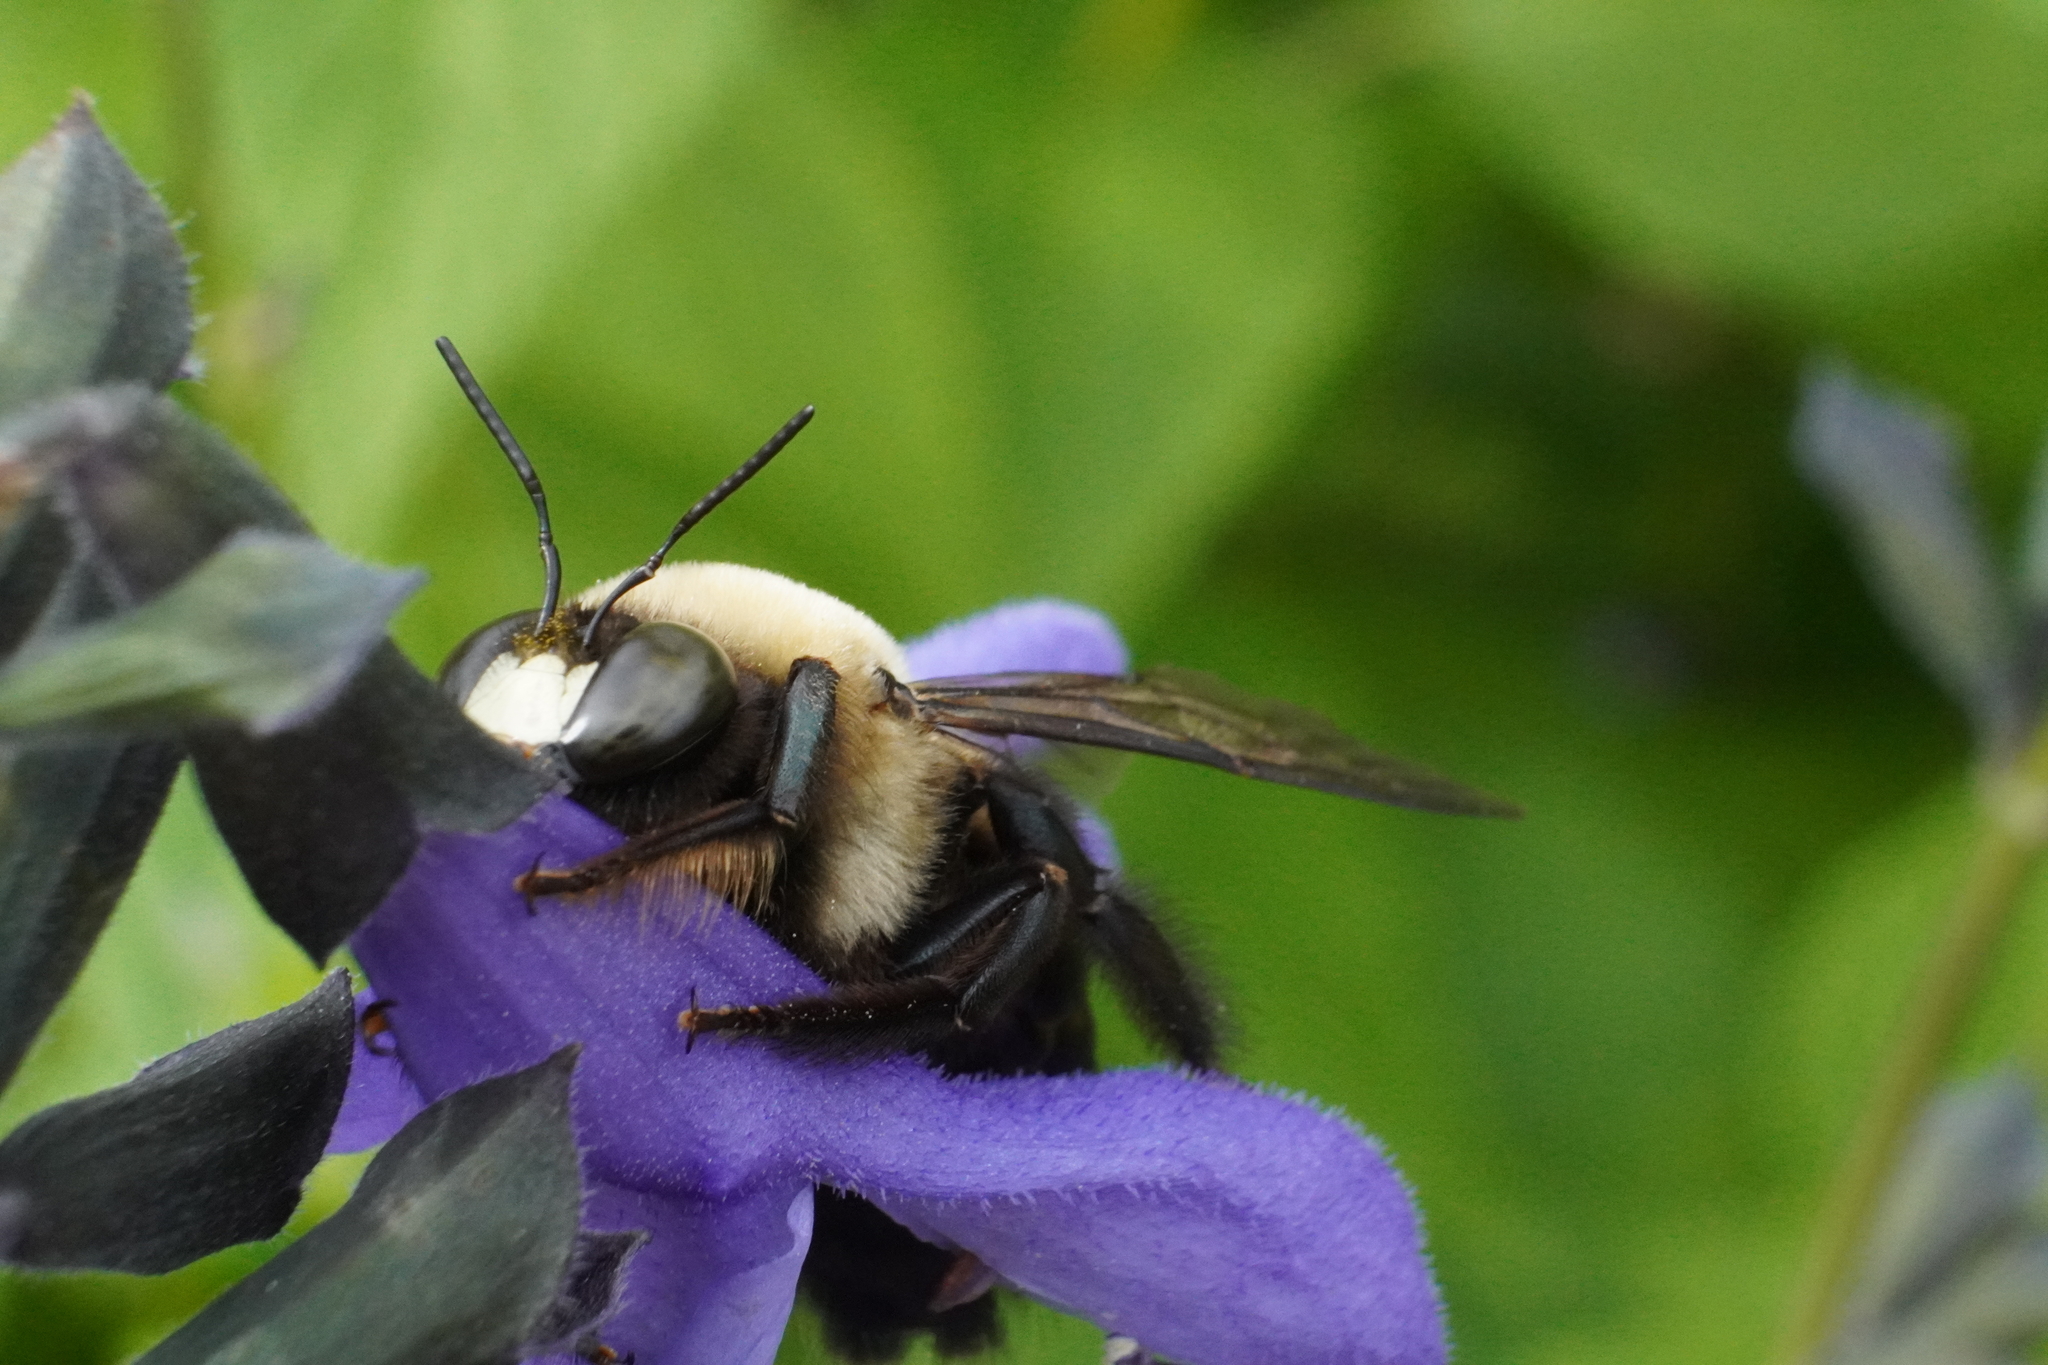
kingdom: Animalia
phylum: Arthropoda
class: Insecta
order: Hymenoptera
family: Apidae
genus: Xylocopa
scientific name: Xylocopa virginica
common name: Carpenter bee
